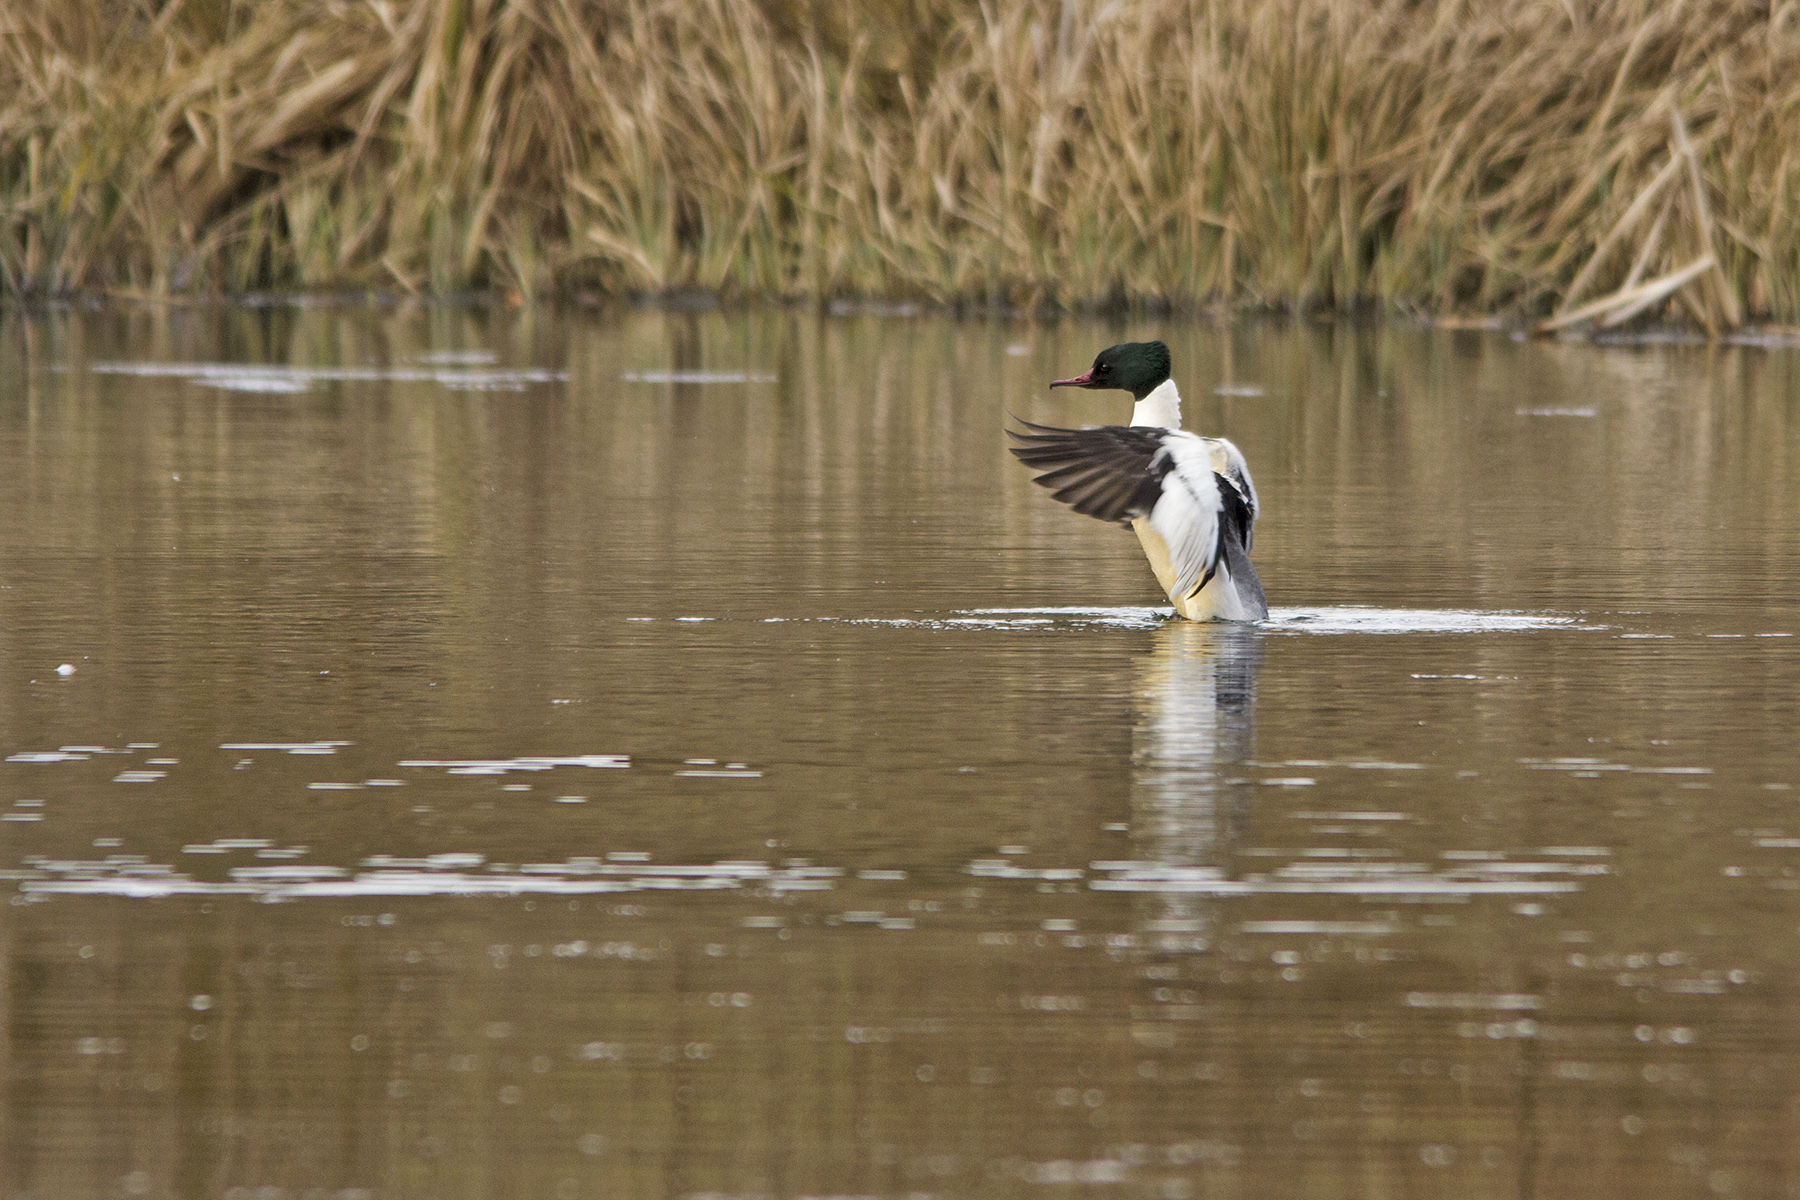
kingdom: Animalia
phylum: Chordata
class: Aves
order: Anseriformes
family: Anatidae
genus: Mergus
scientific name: Mergus merganser
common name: Common merganser
